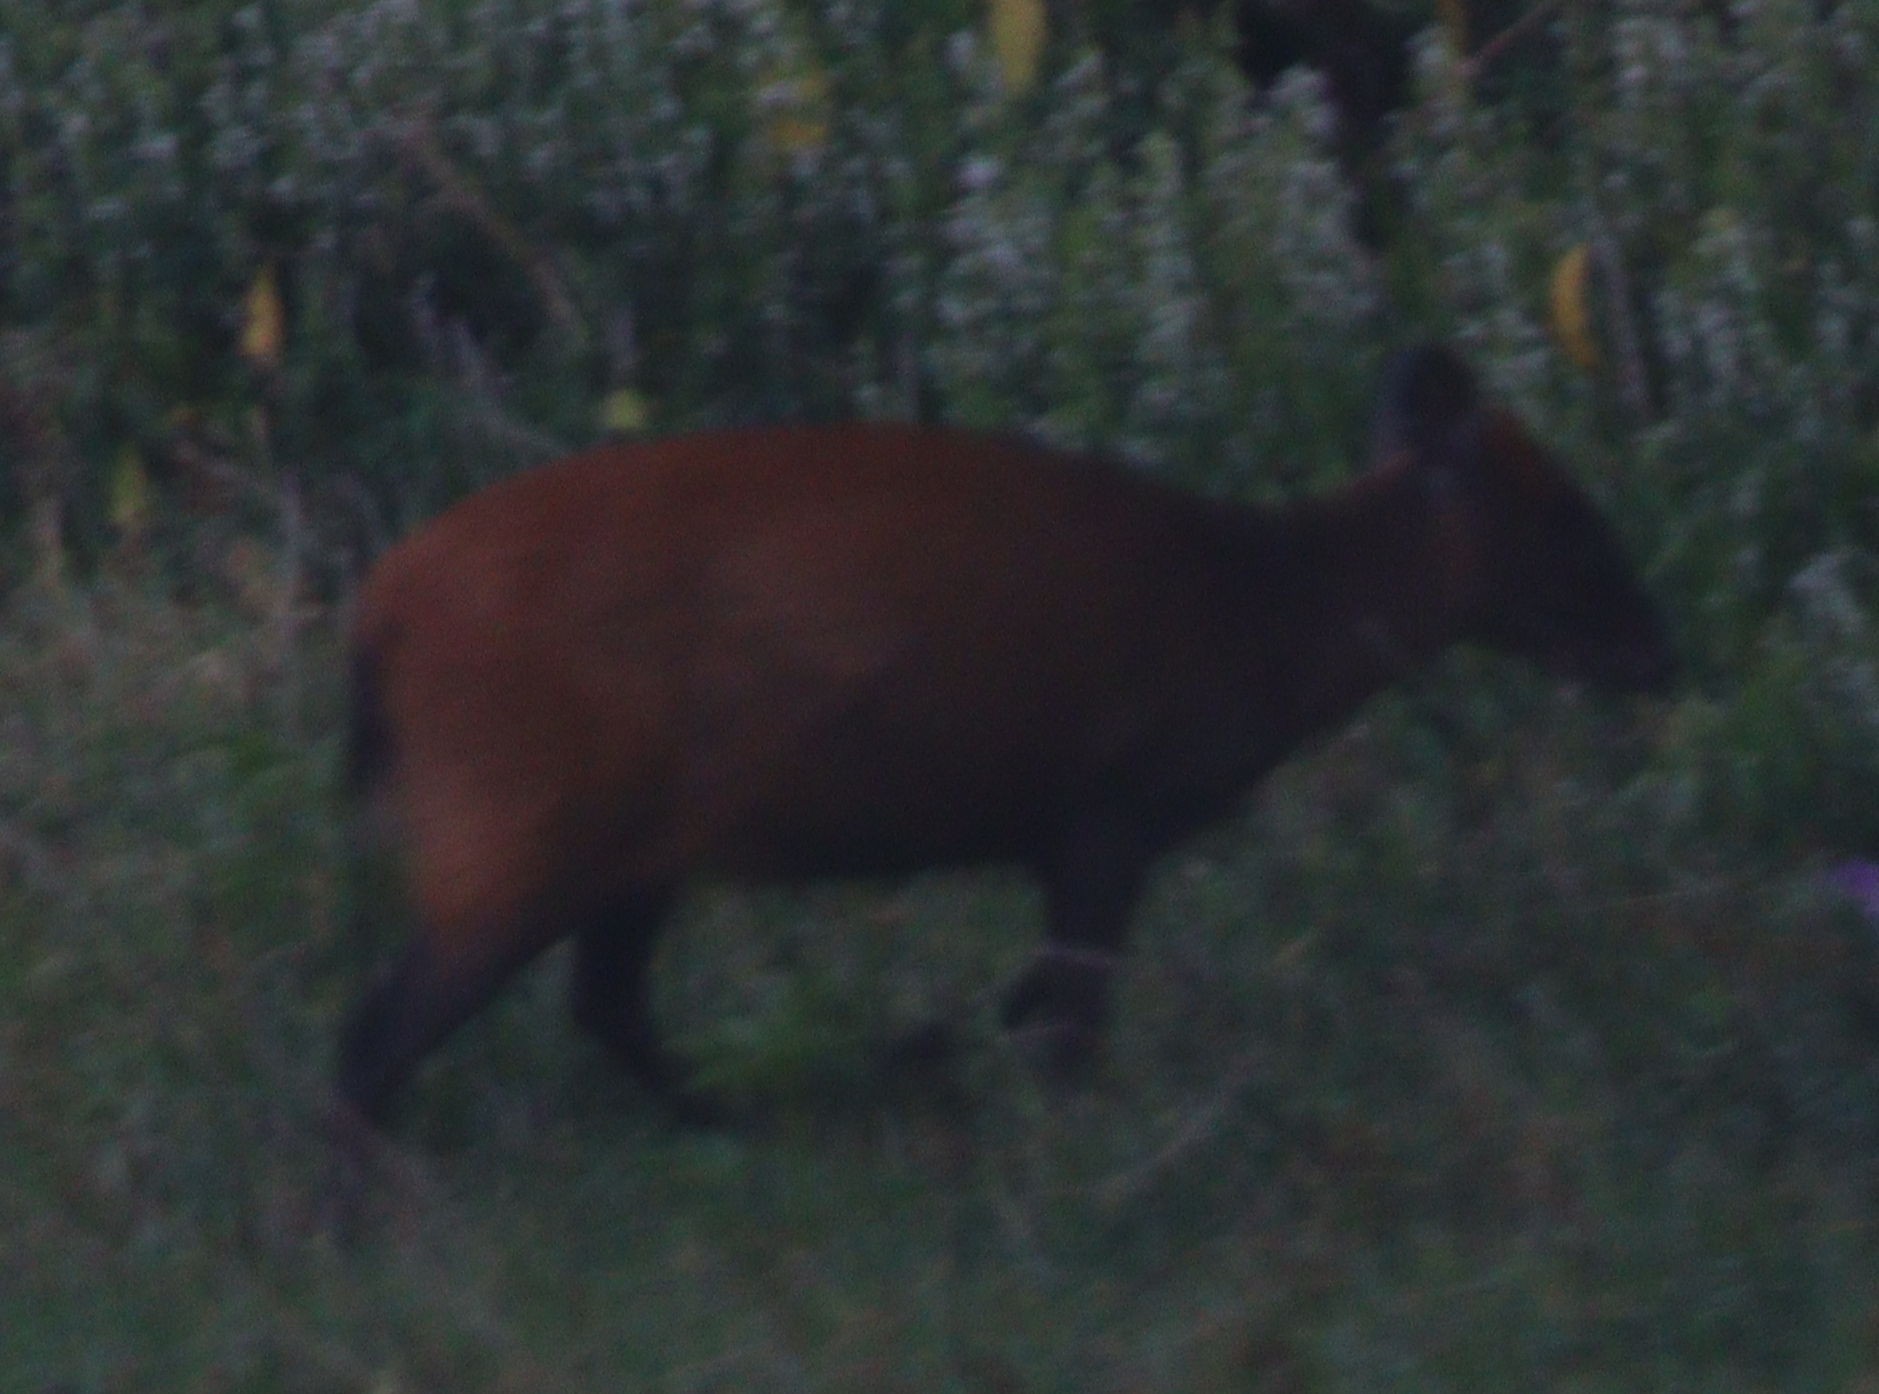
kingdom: Animalia
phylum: Chordata
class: Mammalia
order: Artiodactyla
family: Bovidae
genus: Cephalophus
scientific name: Cephalophus weynsi
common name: Weyns's duiker
